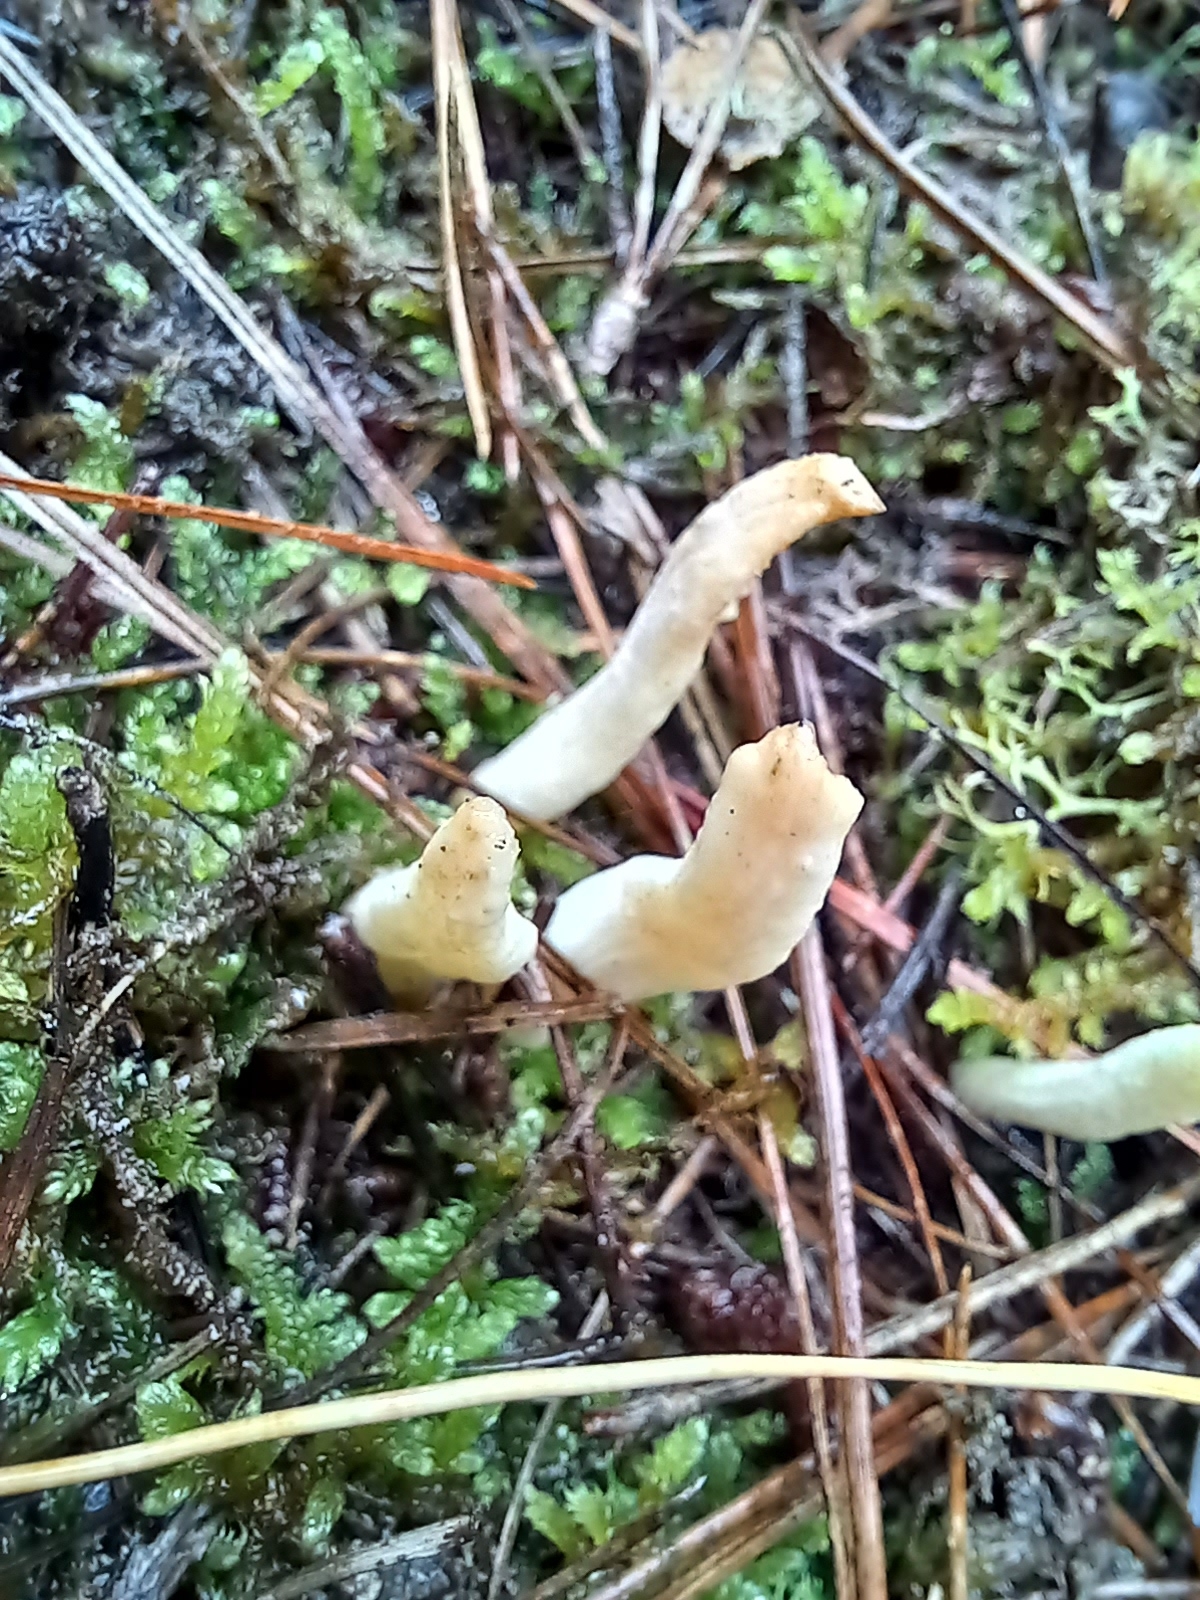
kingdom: Fungi
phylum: Basidiomycota
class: Agaricomycetes
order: Cantharellales
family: Hydnaceae
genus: Clavulina
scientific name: Clavulina rugosa
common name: Wrinkled club
